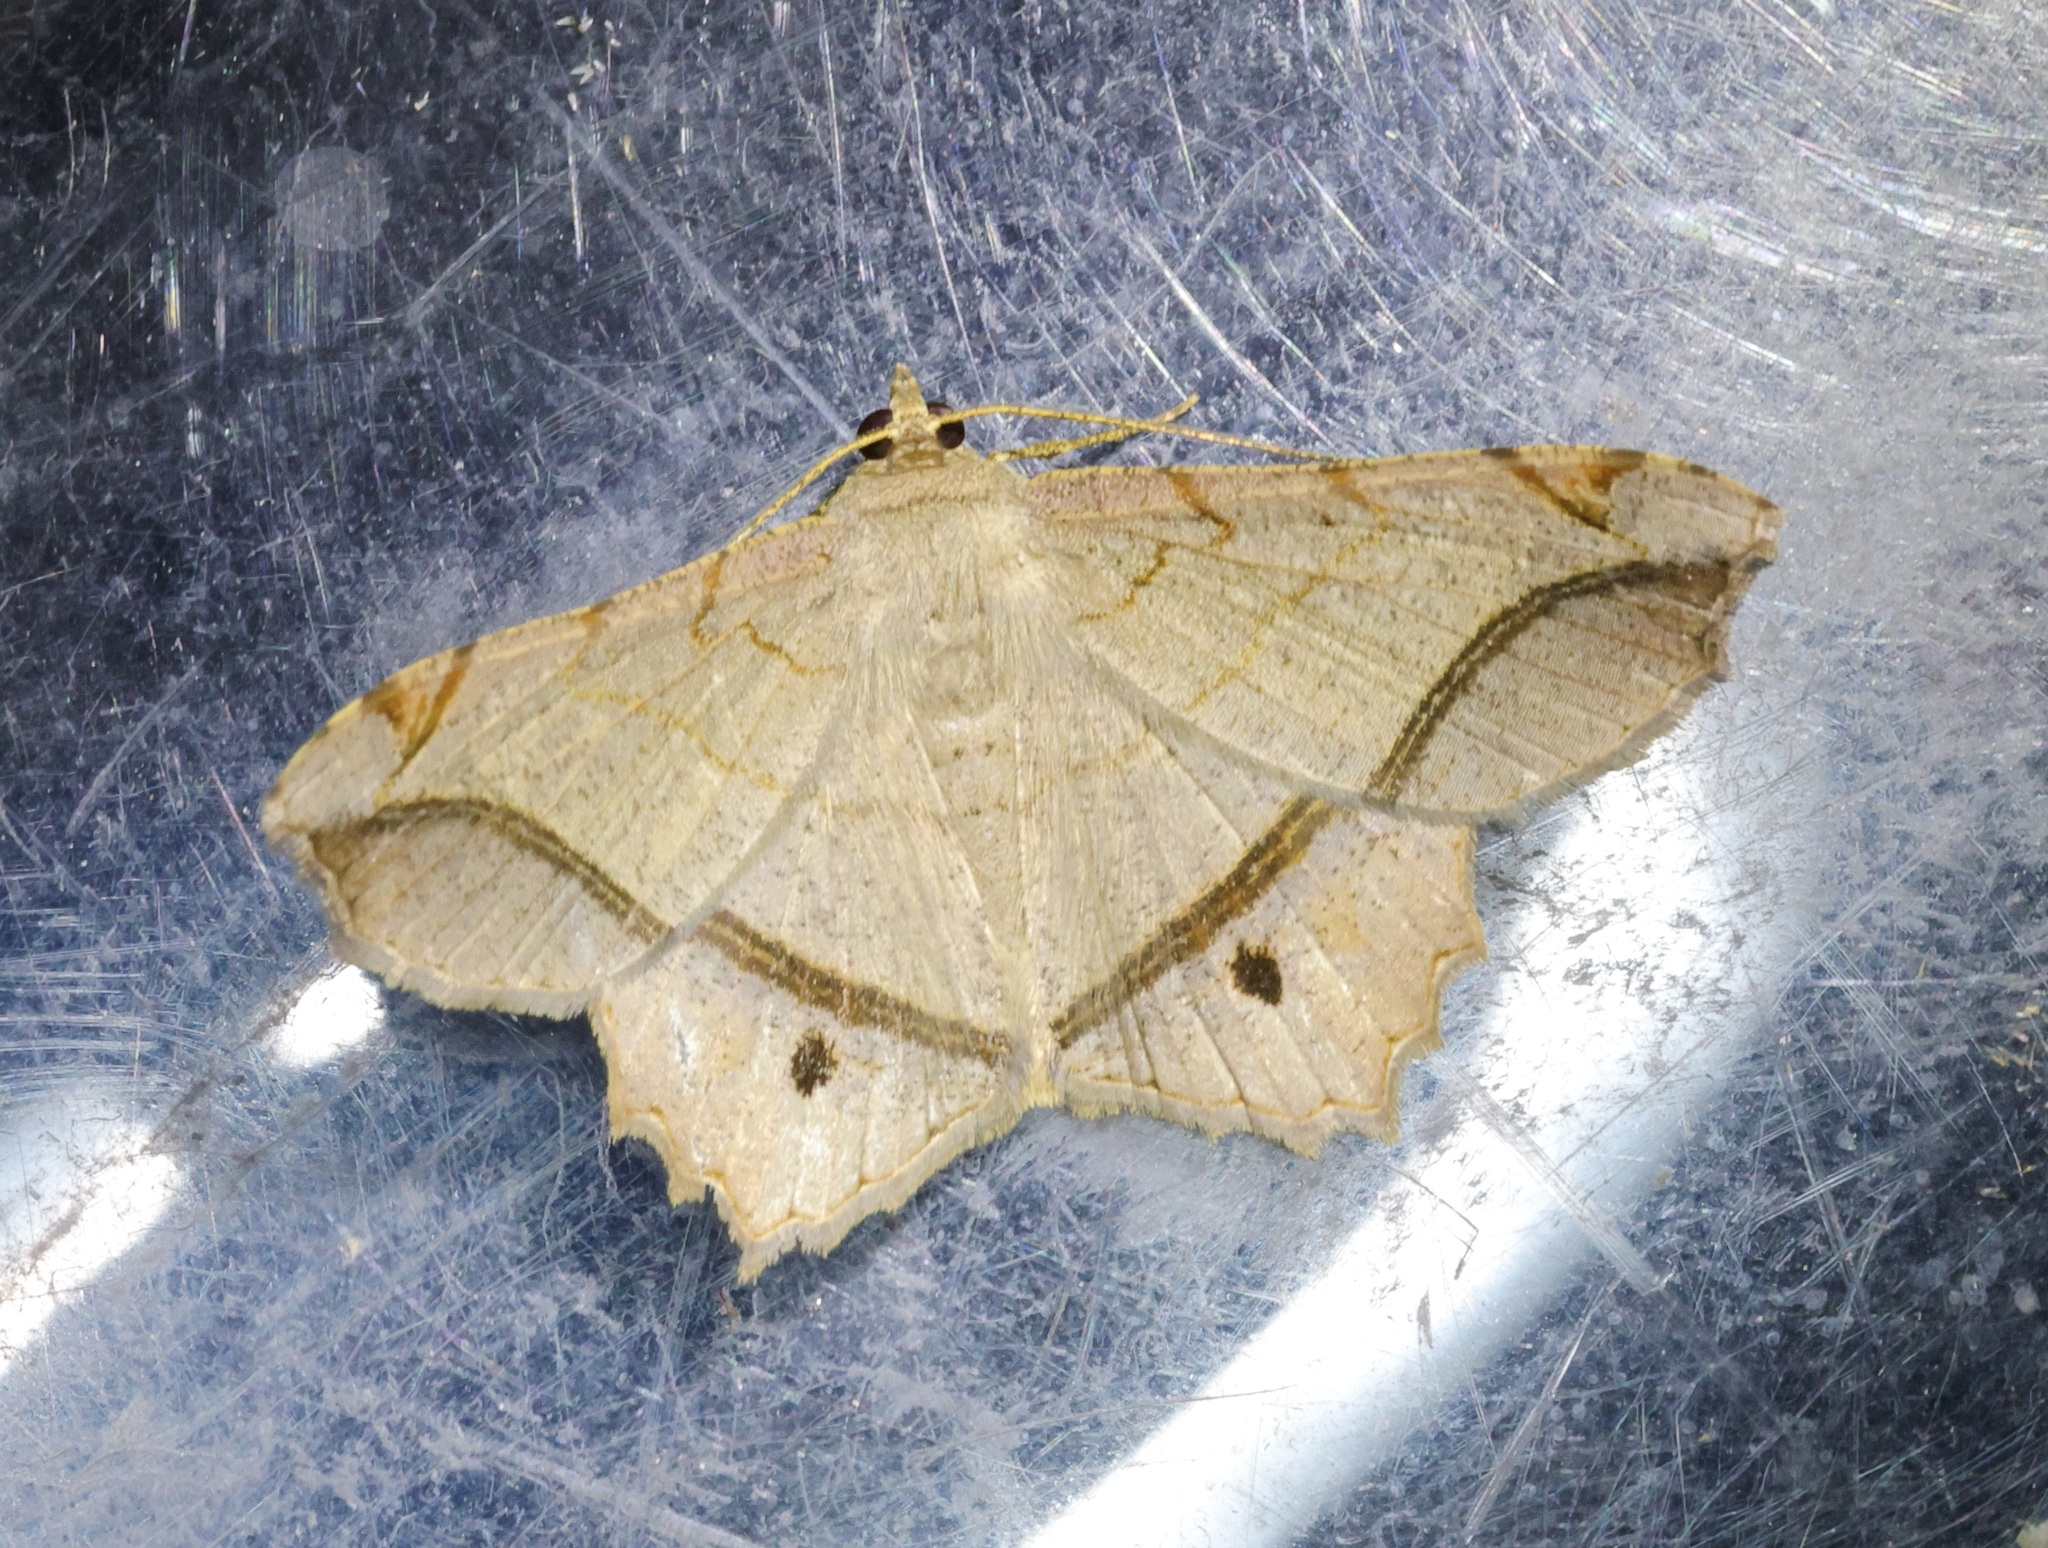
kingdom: Animalia
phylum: Arthropoda
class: Insecta
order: Lepidoptera
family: Geometridae
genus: Chiasmia
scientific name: Chiasmia monticolaria
